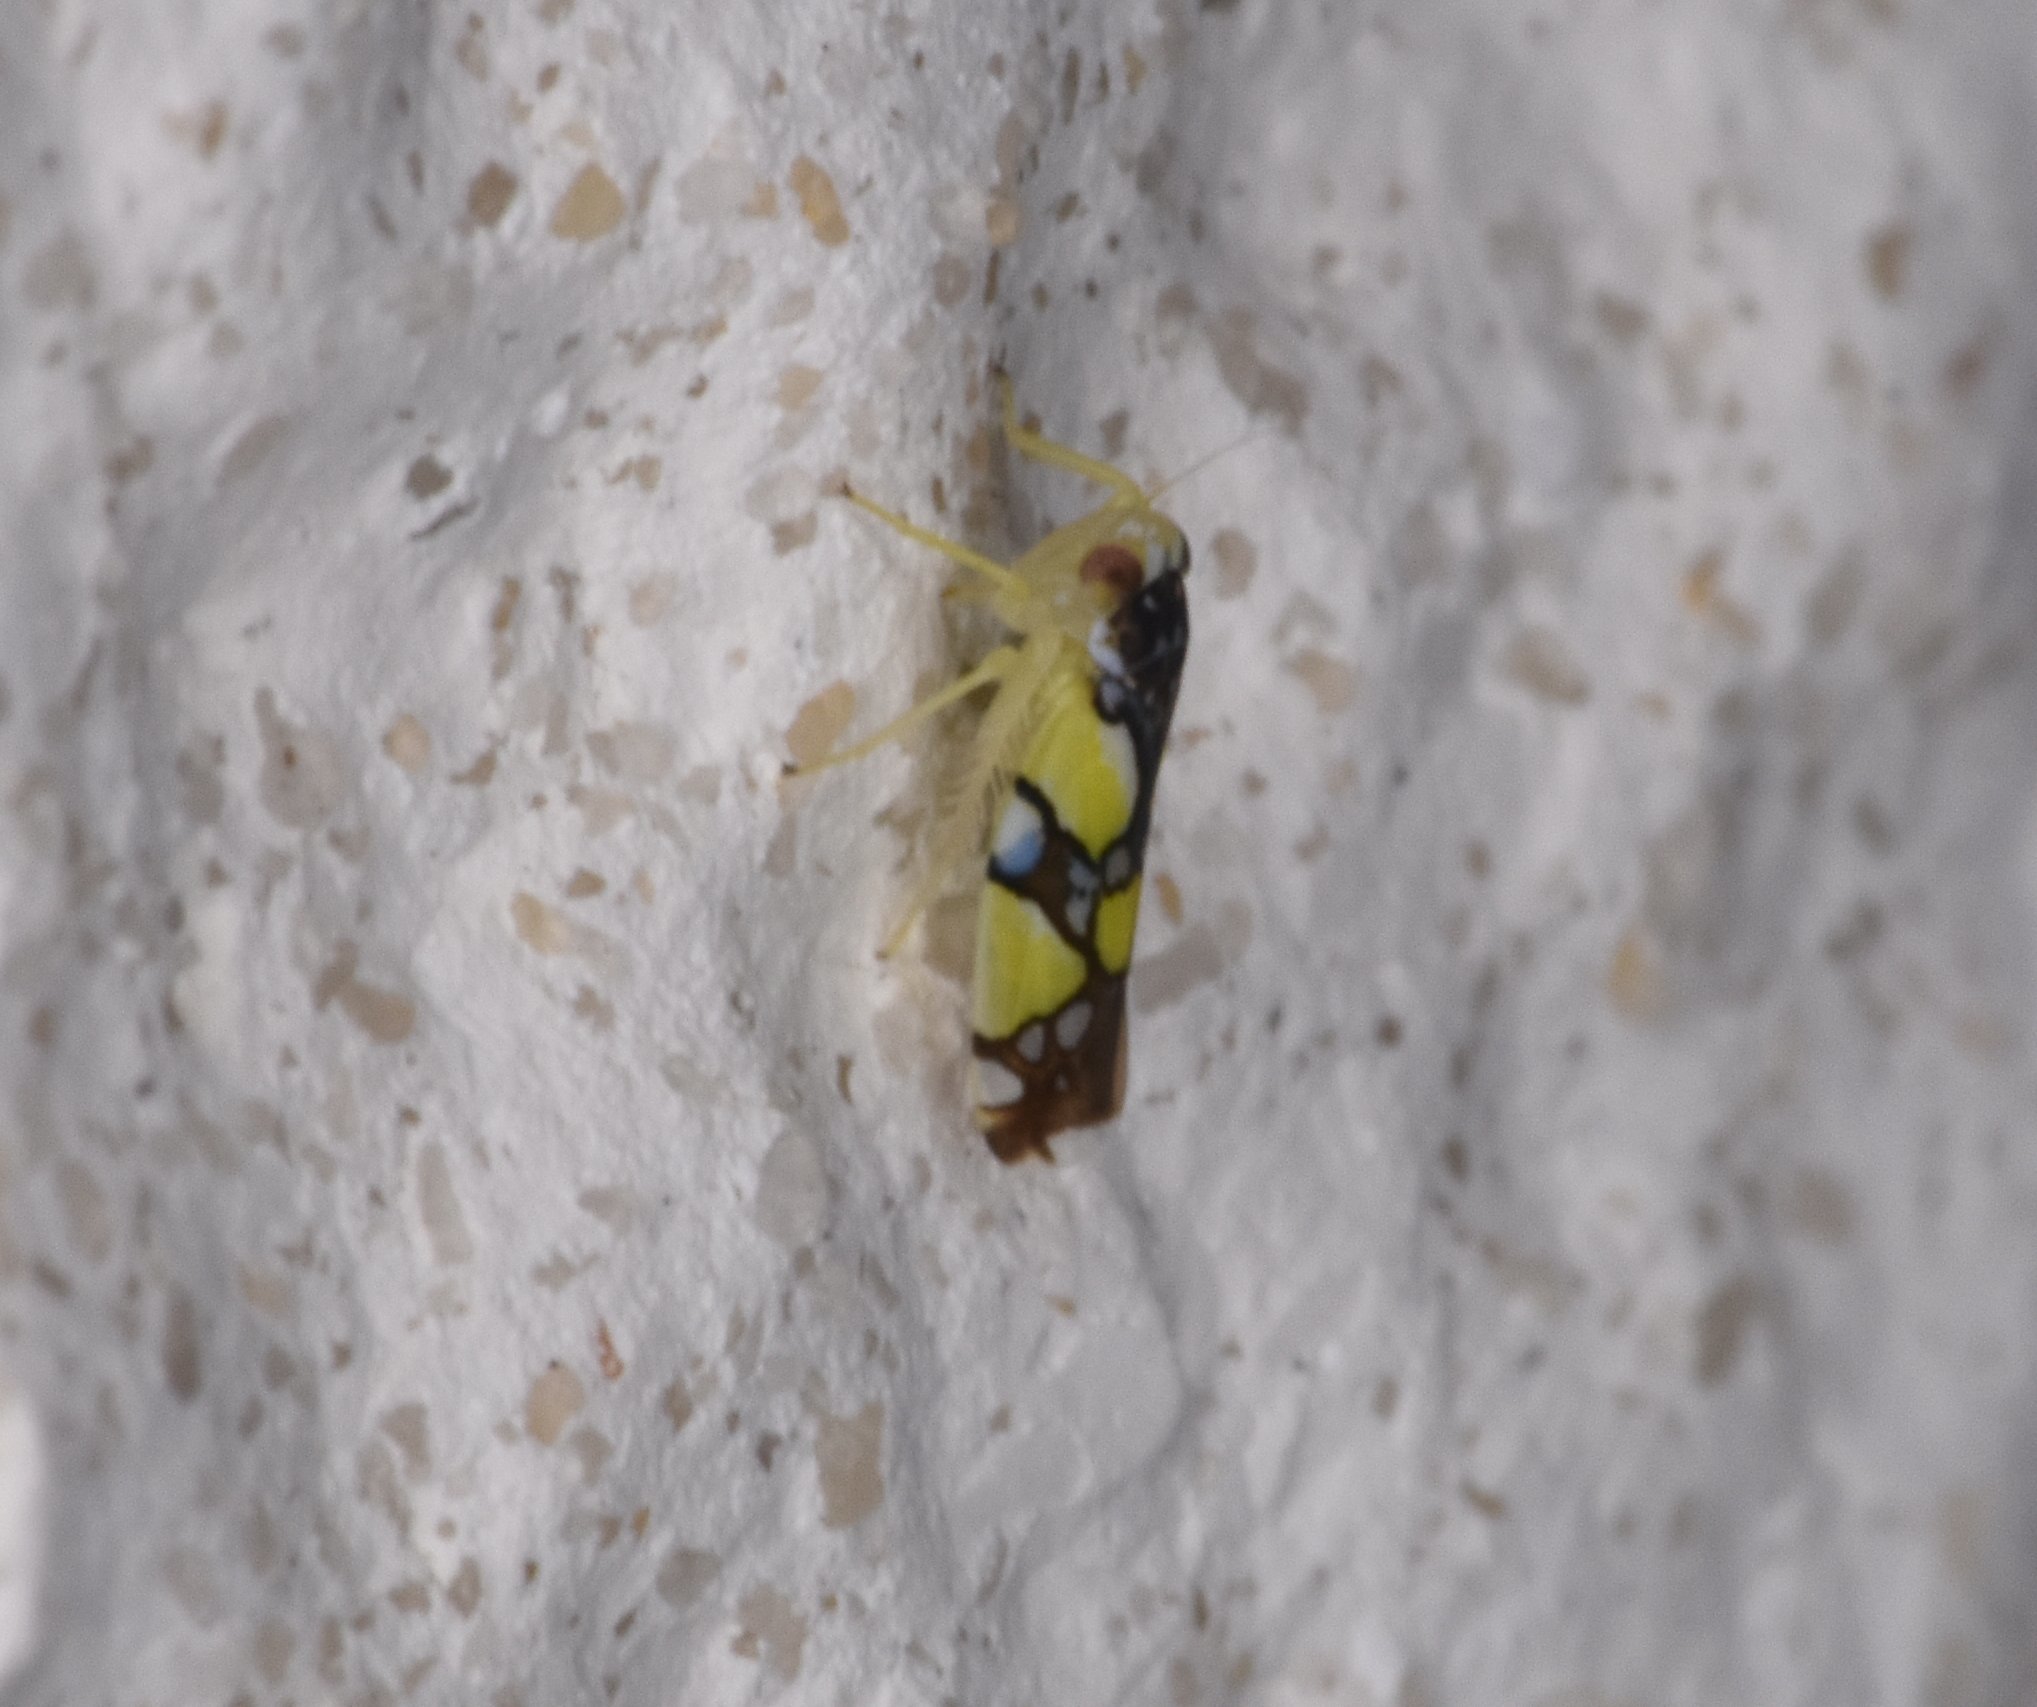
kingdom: Animalia
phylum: Arthropoda
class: Insecta
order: Hemiptera
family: Cicadellidae
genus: Protalebrella
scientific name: Protalebrella brasiliensis
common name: Brasilian leafhopper
